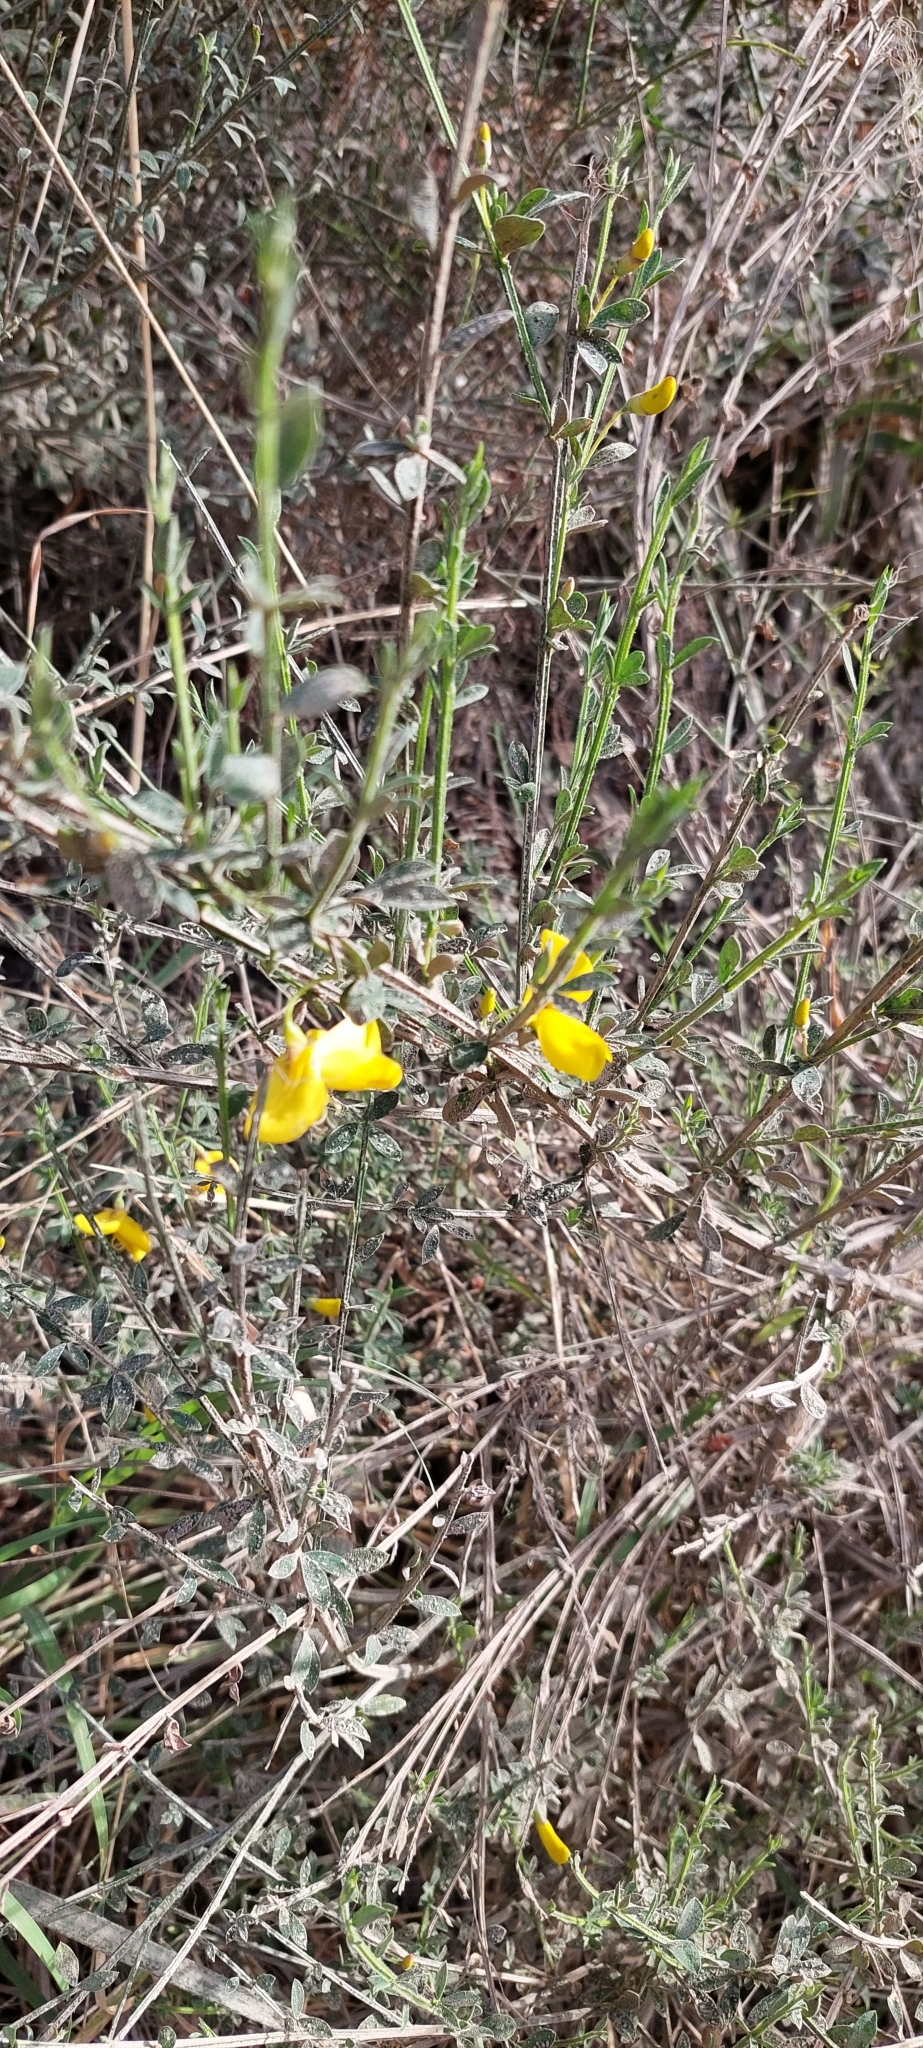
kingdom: Plantae
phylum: Tracheophyta
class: Magnoliopsida
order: Fabales
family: Fabaceae
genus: Cytisus
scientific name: Cytisus scoparius
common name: Scotch broom
